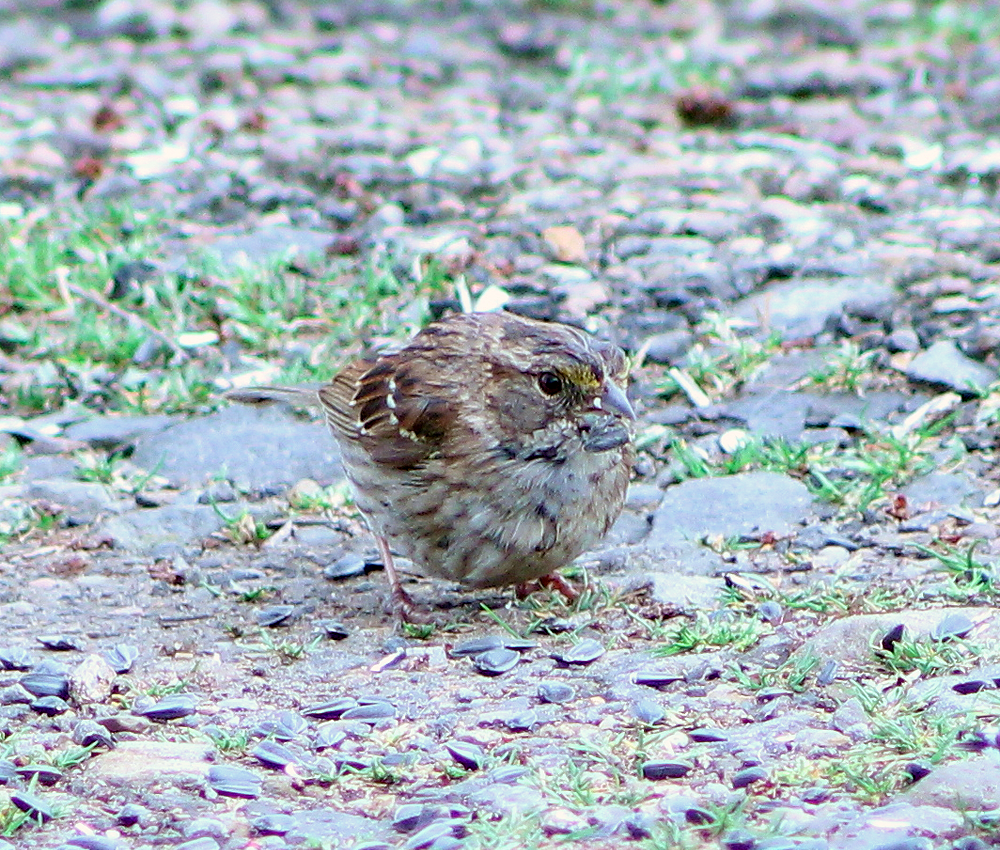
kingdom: Animalia
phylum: Chordata
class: Aves
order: Passeriformes
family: Passerellidae
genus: Zonotrichia
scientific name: Zonotrichia albicollis
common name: White-throated sparrow
